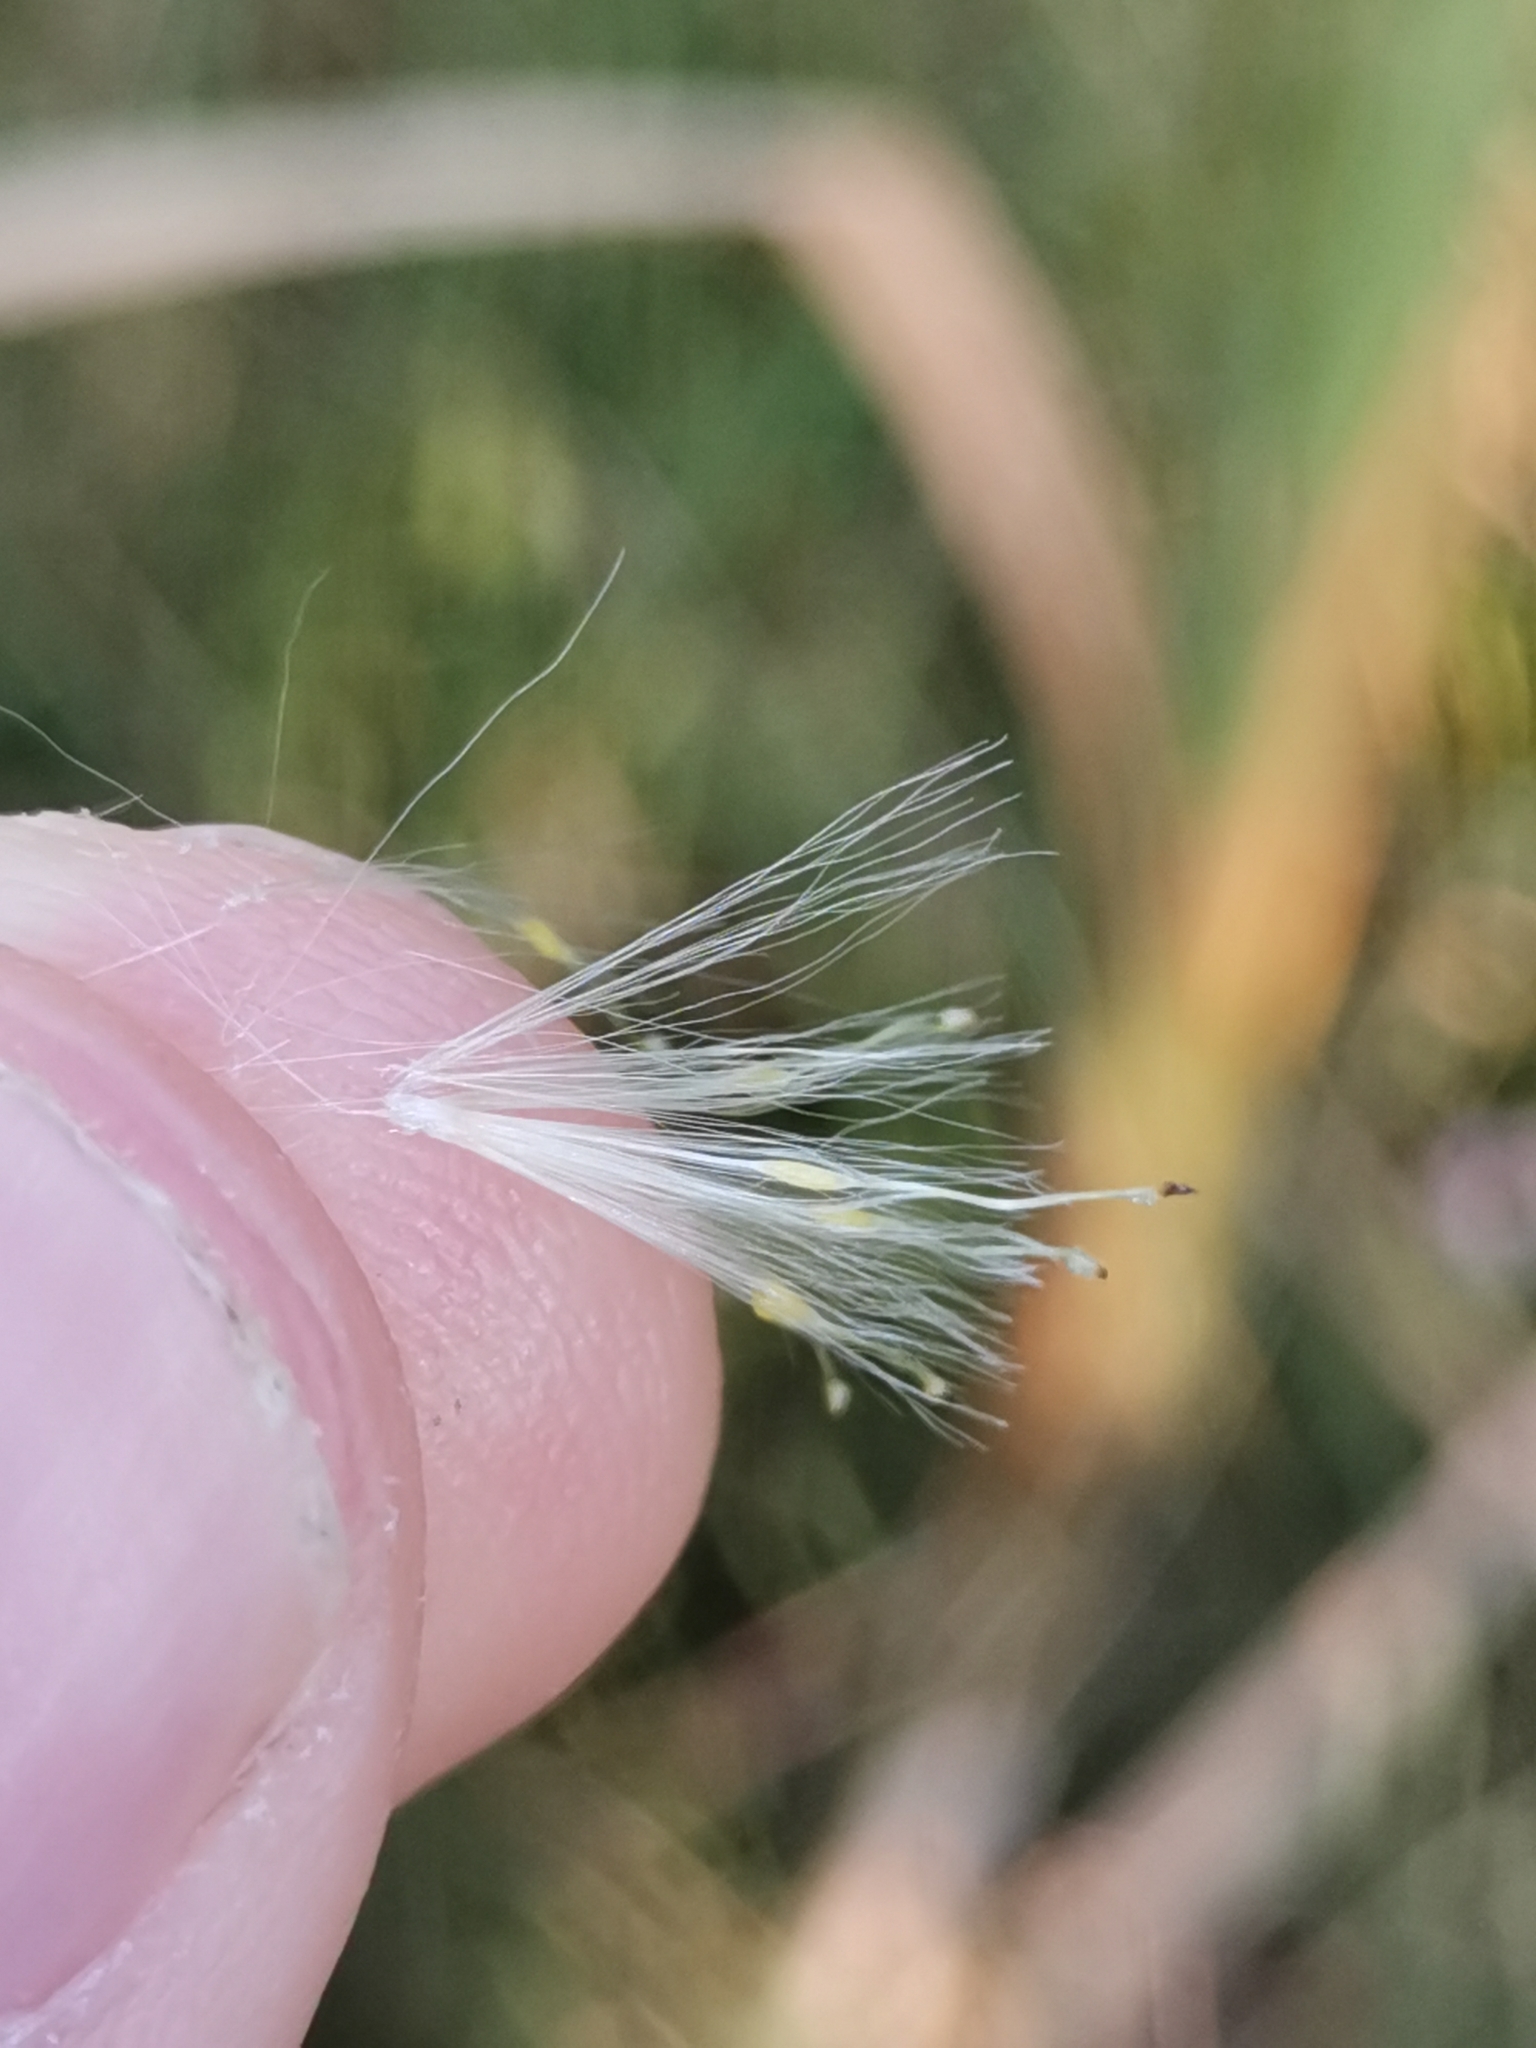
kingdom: Plantae
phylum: Tracheophyta
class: Liliopsida
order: Poales
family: Typhaceae
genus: Typha
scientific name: Typha latifolia
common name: Broadleaf cattail
